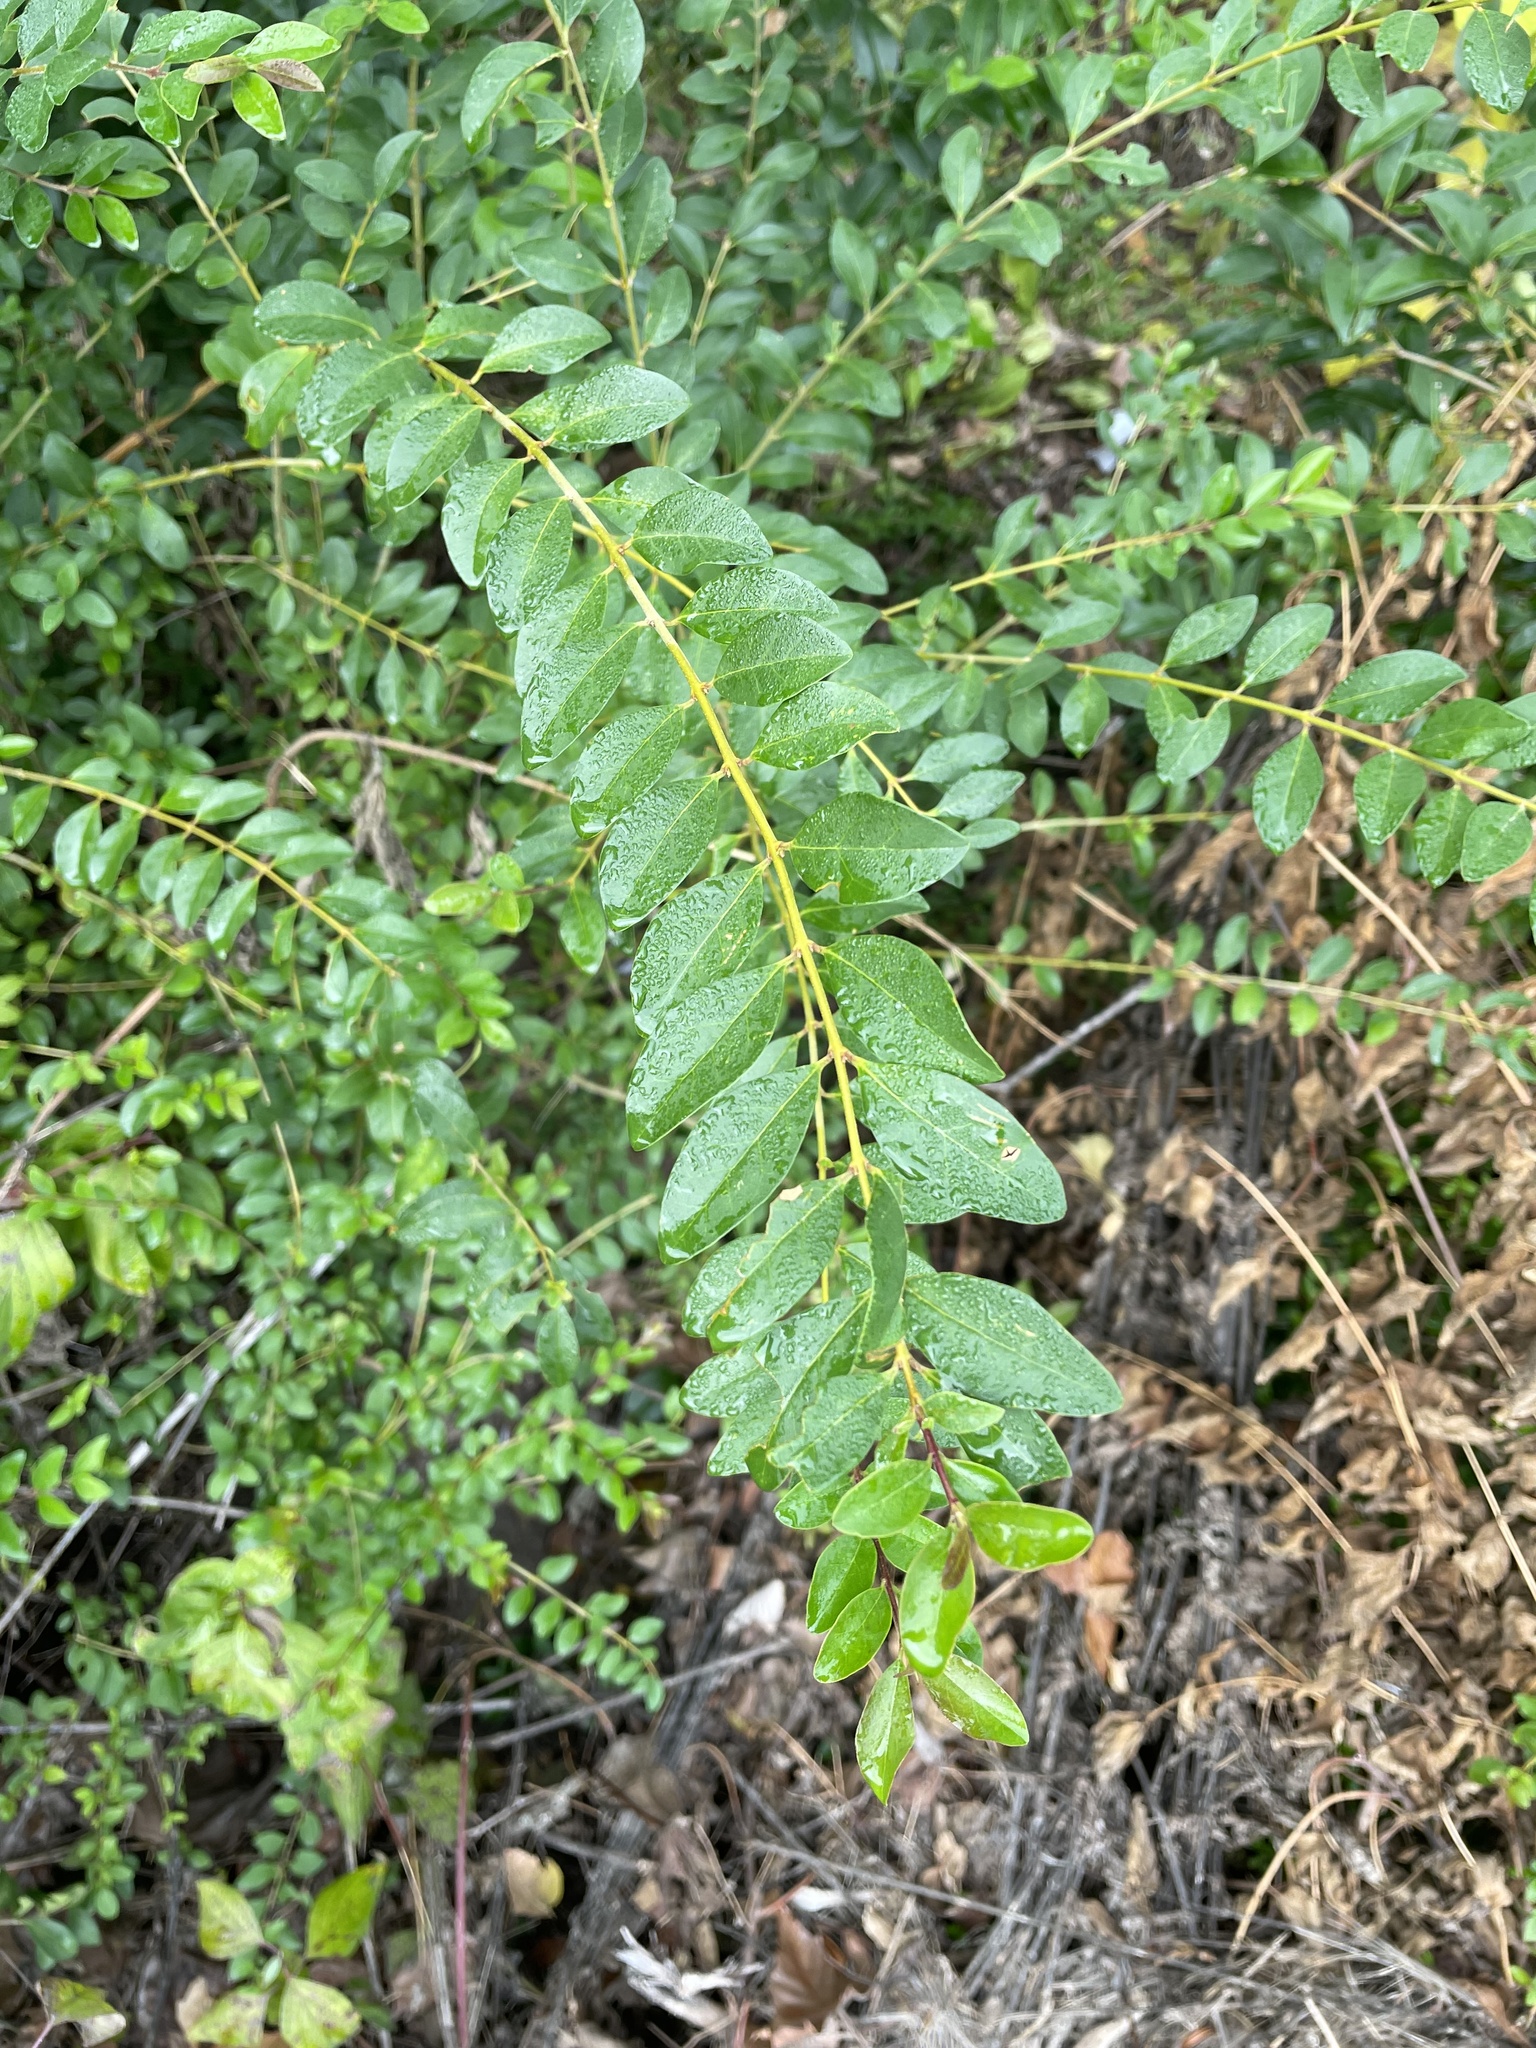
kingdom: Plantae
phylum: Tracheophyta
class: Magnoliopsida
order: Lamiales
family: Oleaceae
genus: Ligustrum
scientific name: Ligustrum sinense
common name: Chinese privet
